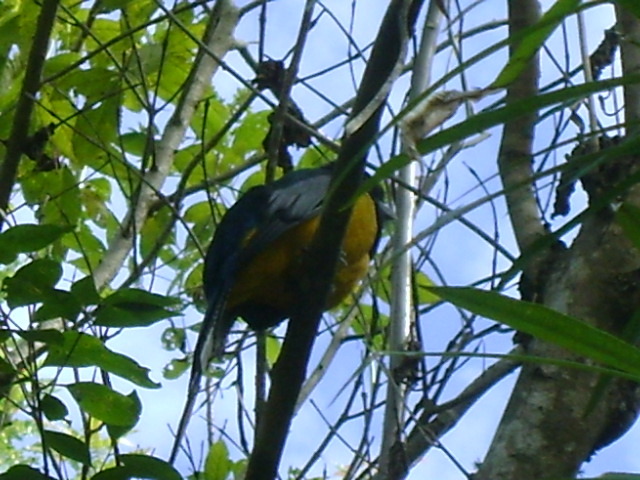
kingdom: Animalia
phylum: Chordata
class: Aves
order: Trogoniformes
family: Trogonidae
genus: Trogon
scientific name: Trogon caligatus
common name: Gartered trogon
